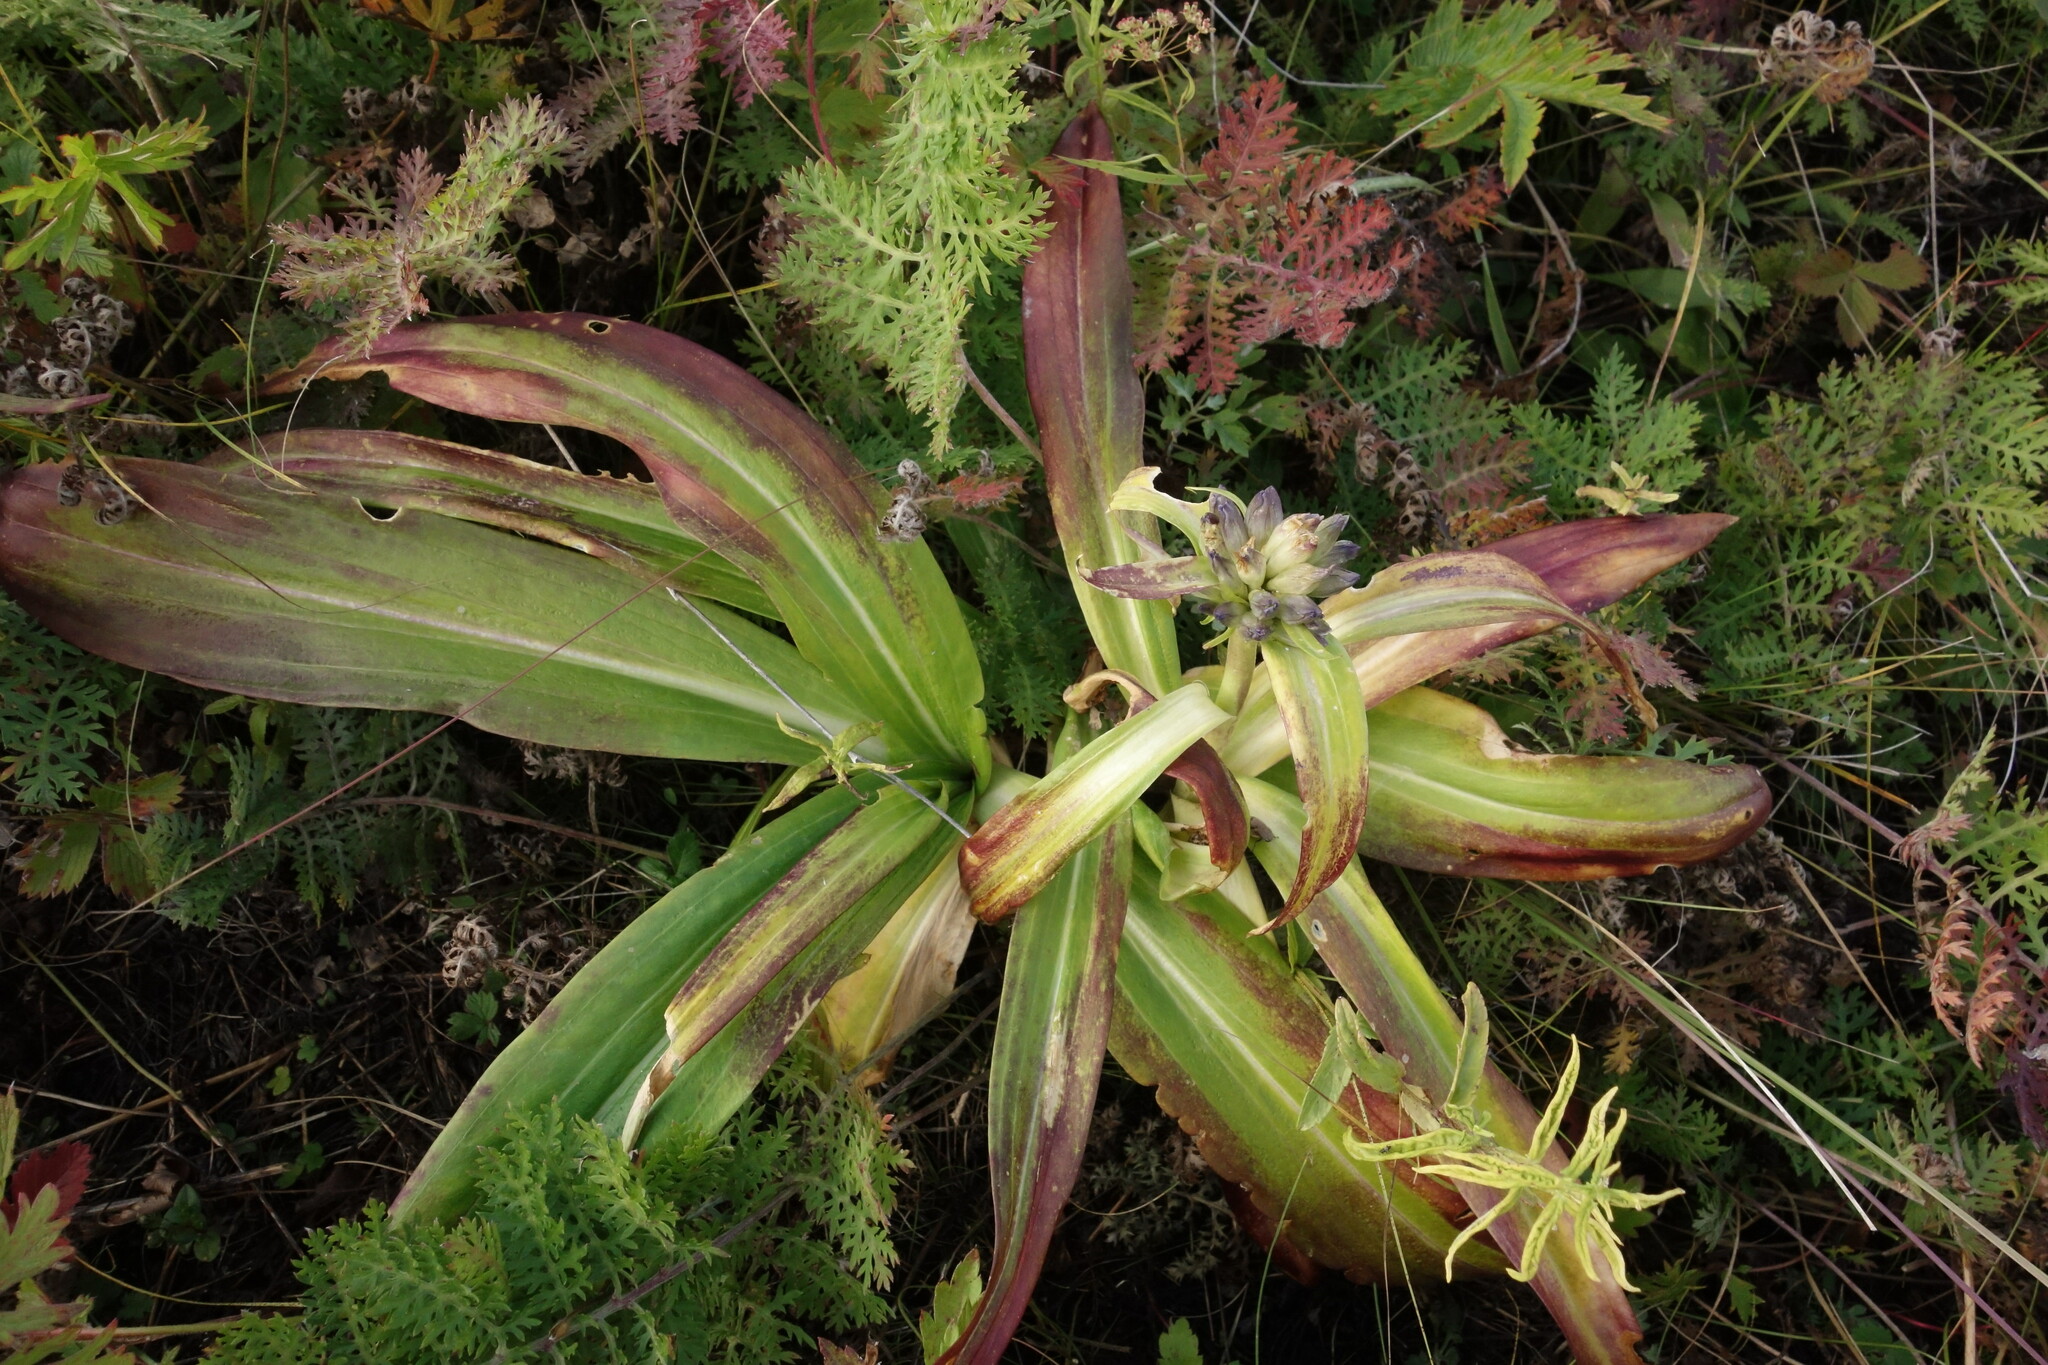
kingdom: Plantae
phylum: Tracheophyta
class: Magnoliopsida
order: Gentianales
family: Gentianaceae
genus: Gentiana
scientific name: Gentiana macrophylla
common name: Large-leaf gentian
